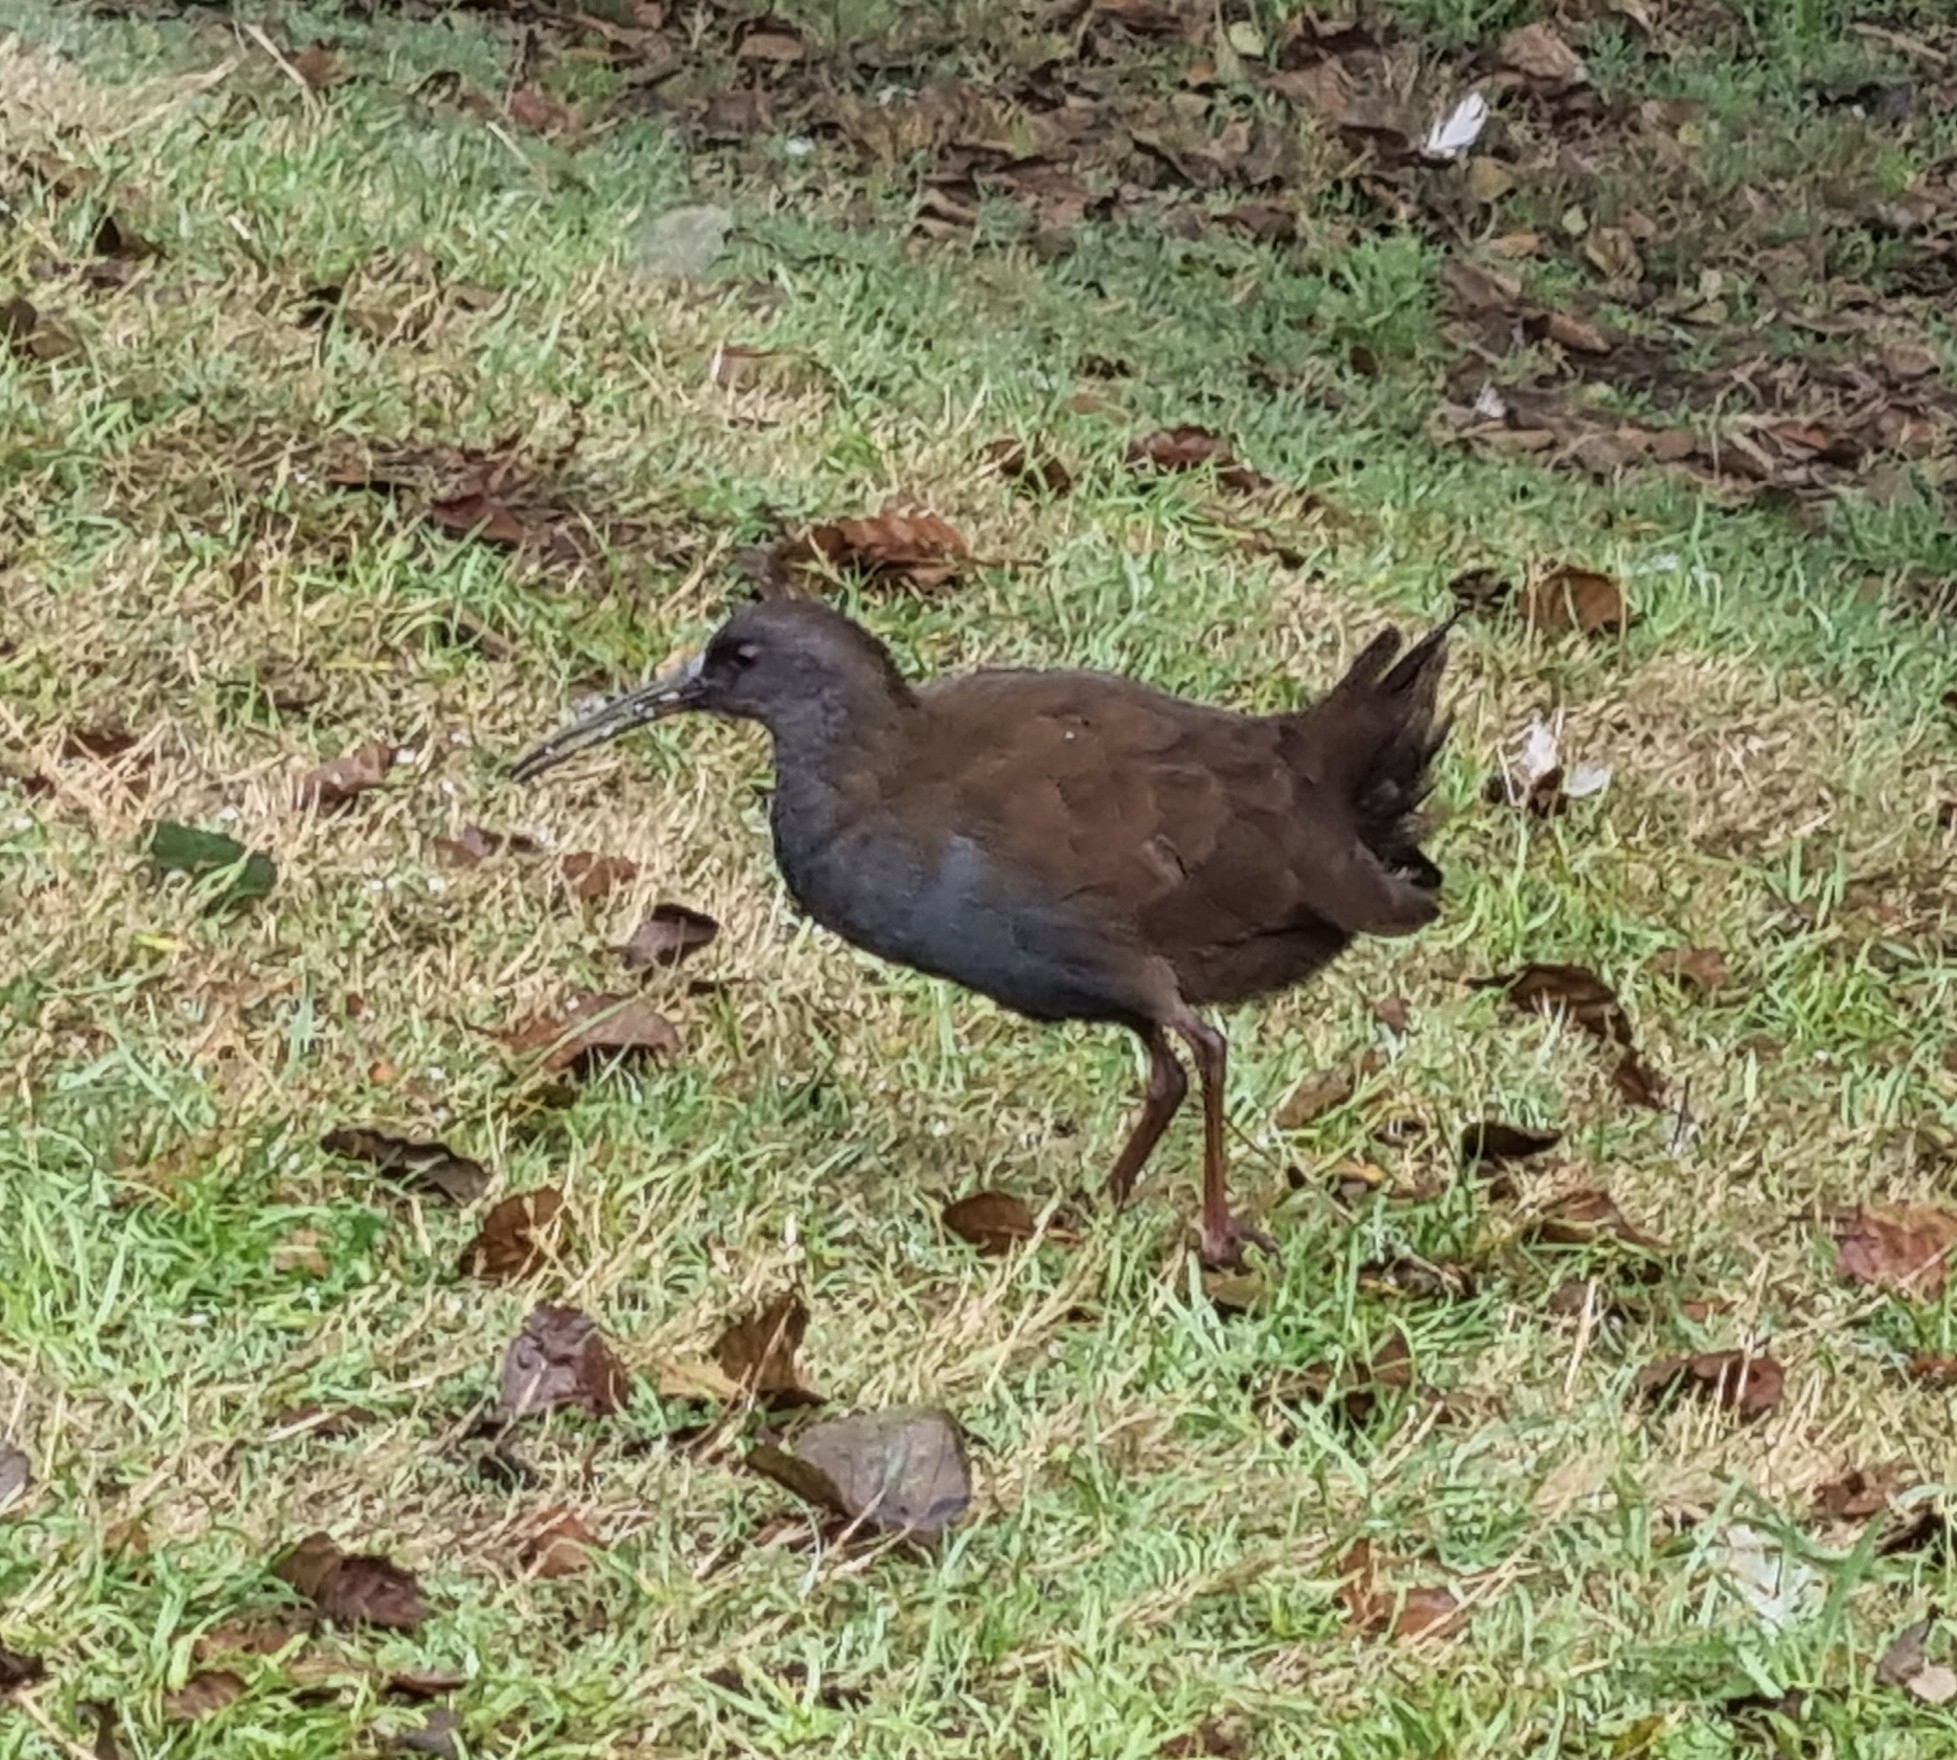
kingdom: Animalia
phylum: Chordata
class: Aves
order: Gruiformes
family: Rallidae
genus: Pardirallus
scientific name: Pardirallus sanguinolentus
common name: Plumbeous rail
